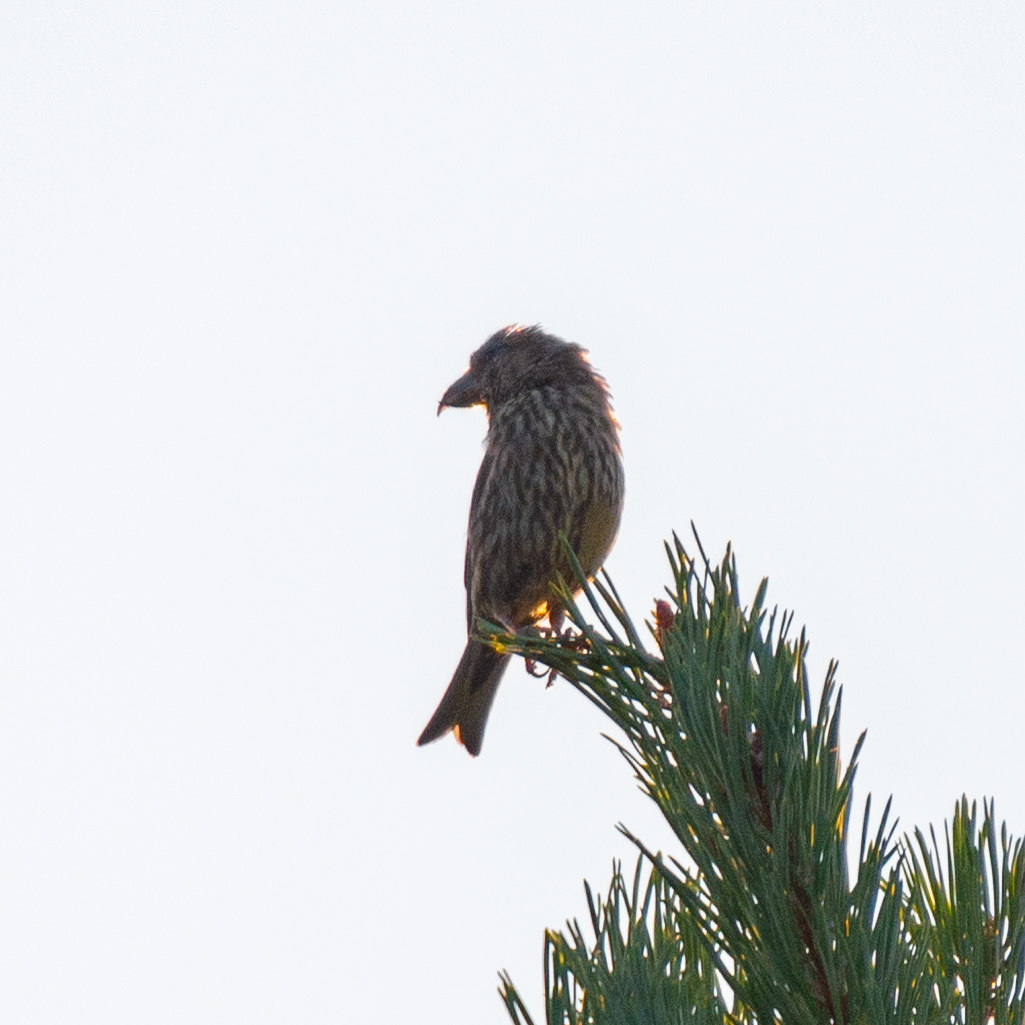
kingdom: Animalia
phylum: Chordata
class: Aves
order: Passeriformes
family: Fringillidae
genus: Loxia
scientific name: Loxia curvirostra
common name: Red crossbill
